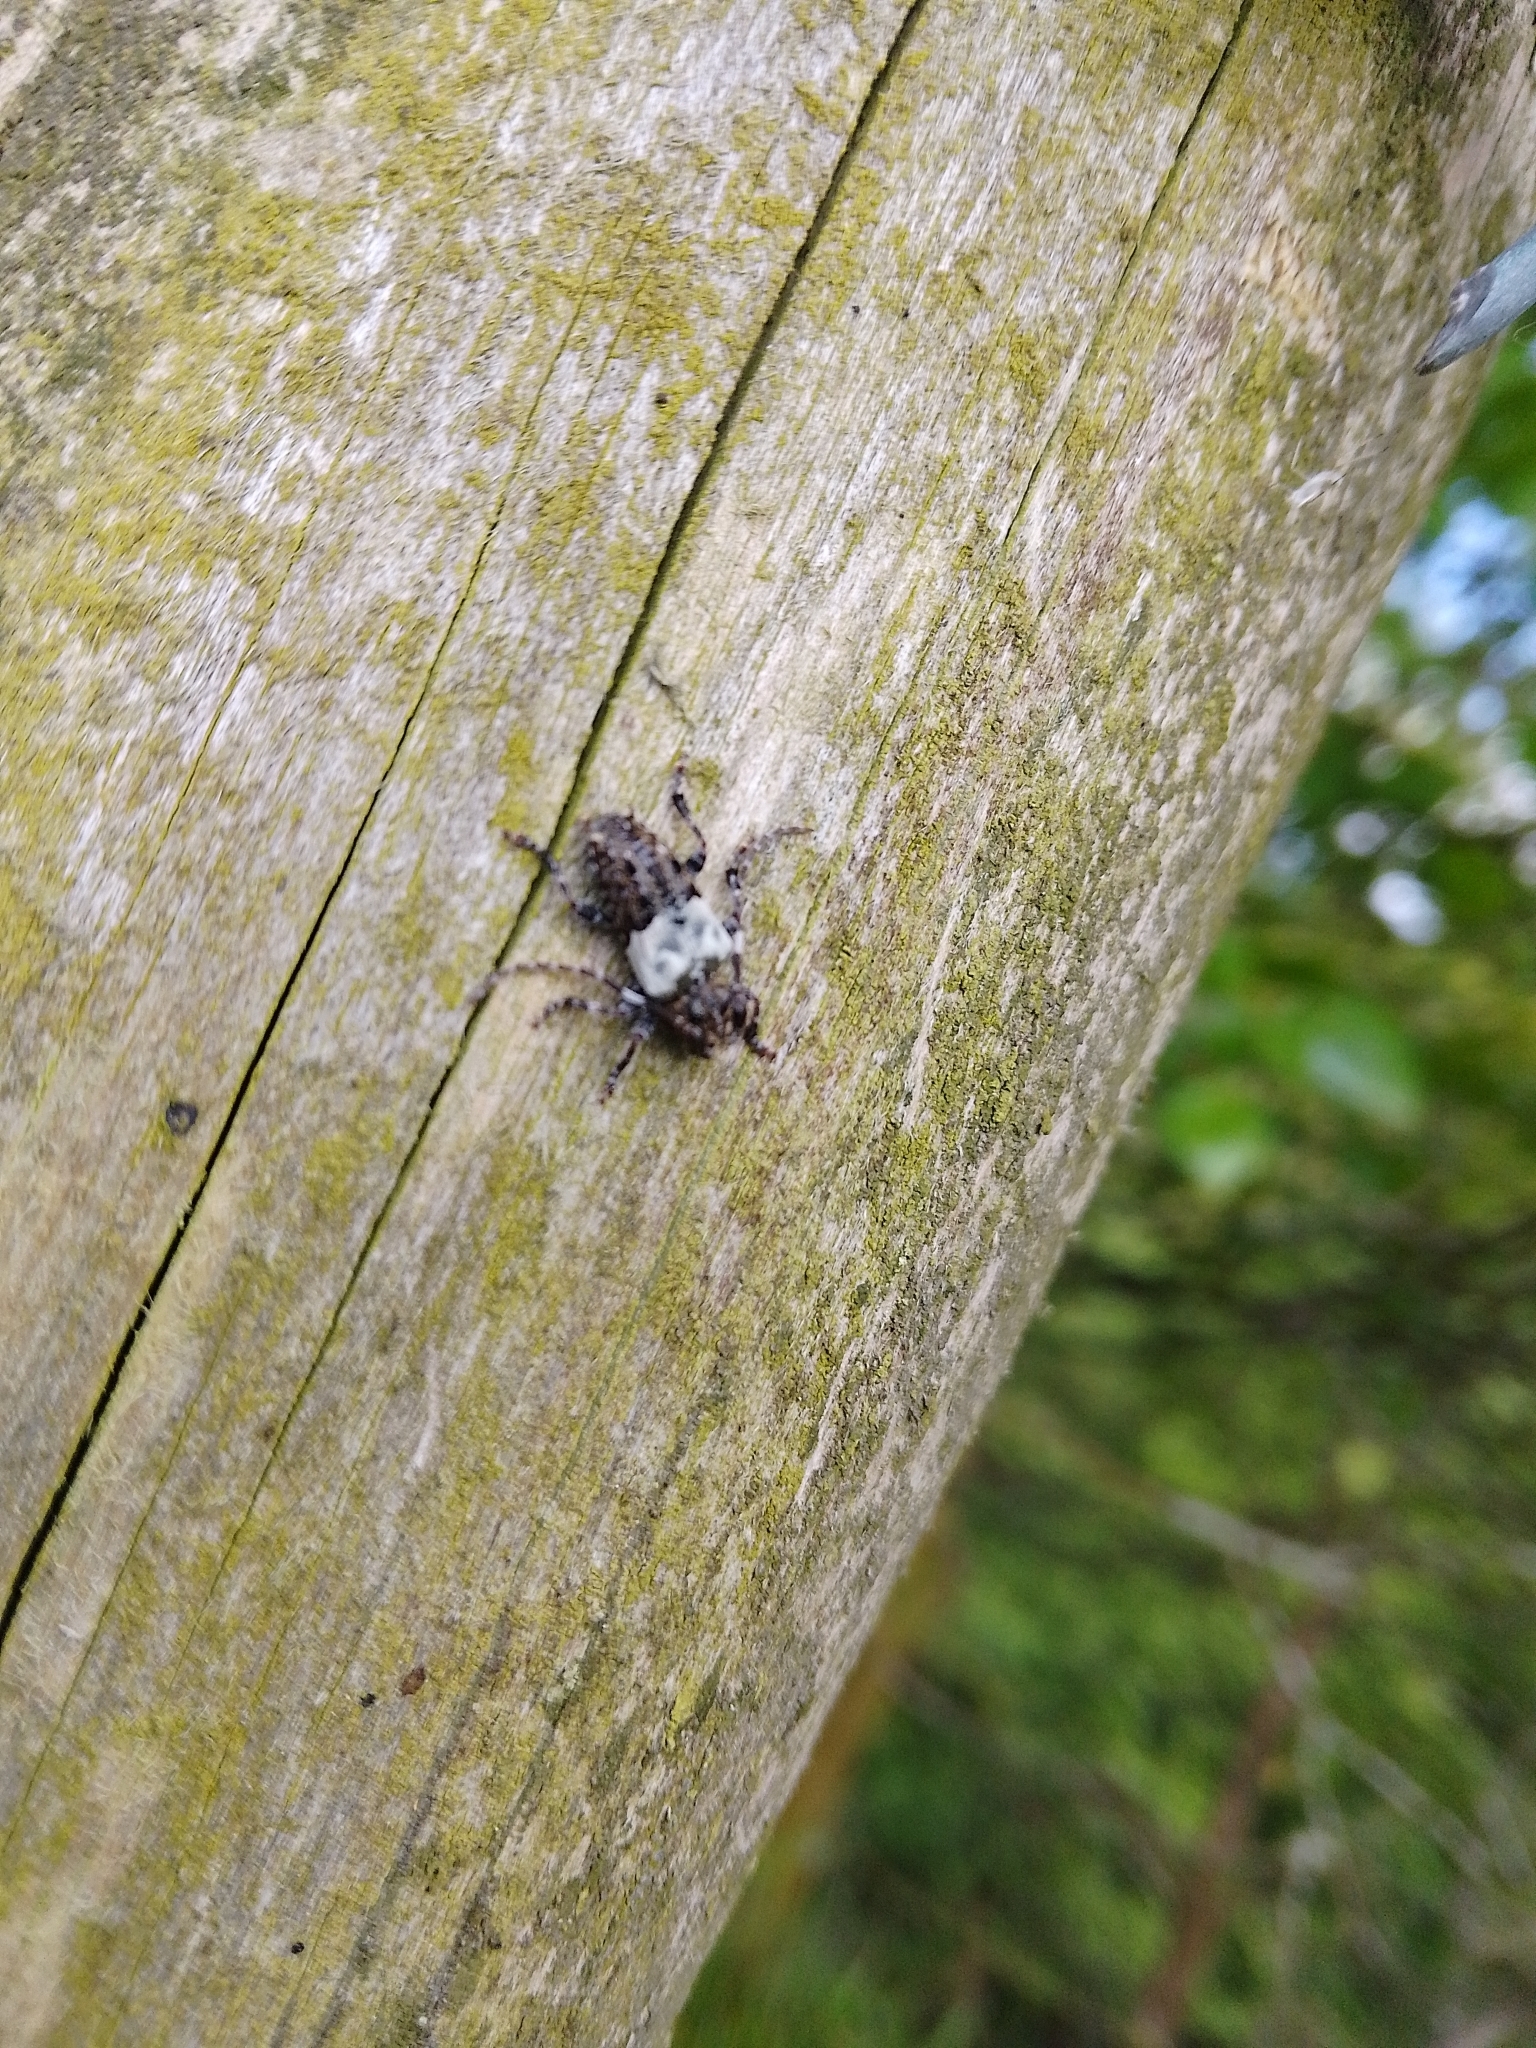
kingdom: Animalia
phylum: Arthropoda
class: Insecta
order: Coleoptera
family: Cerambycidae
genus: Pogonocherus
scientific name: Pogonocherus hispidulus
